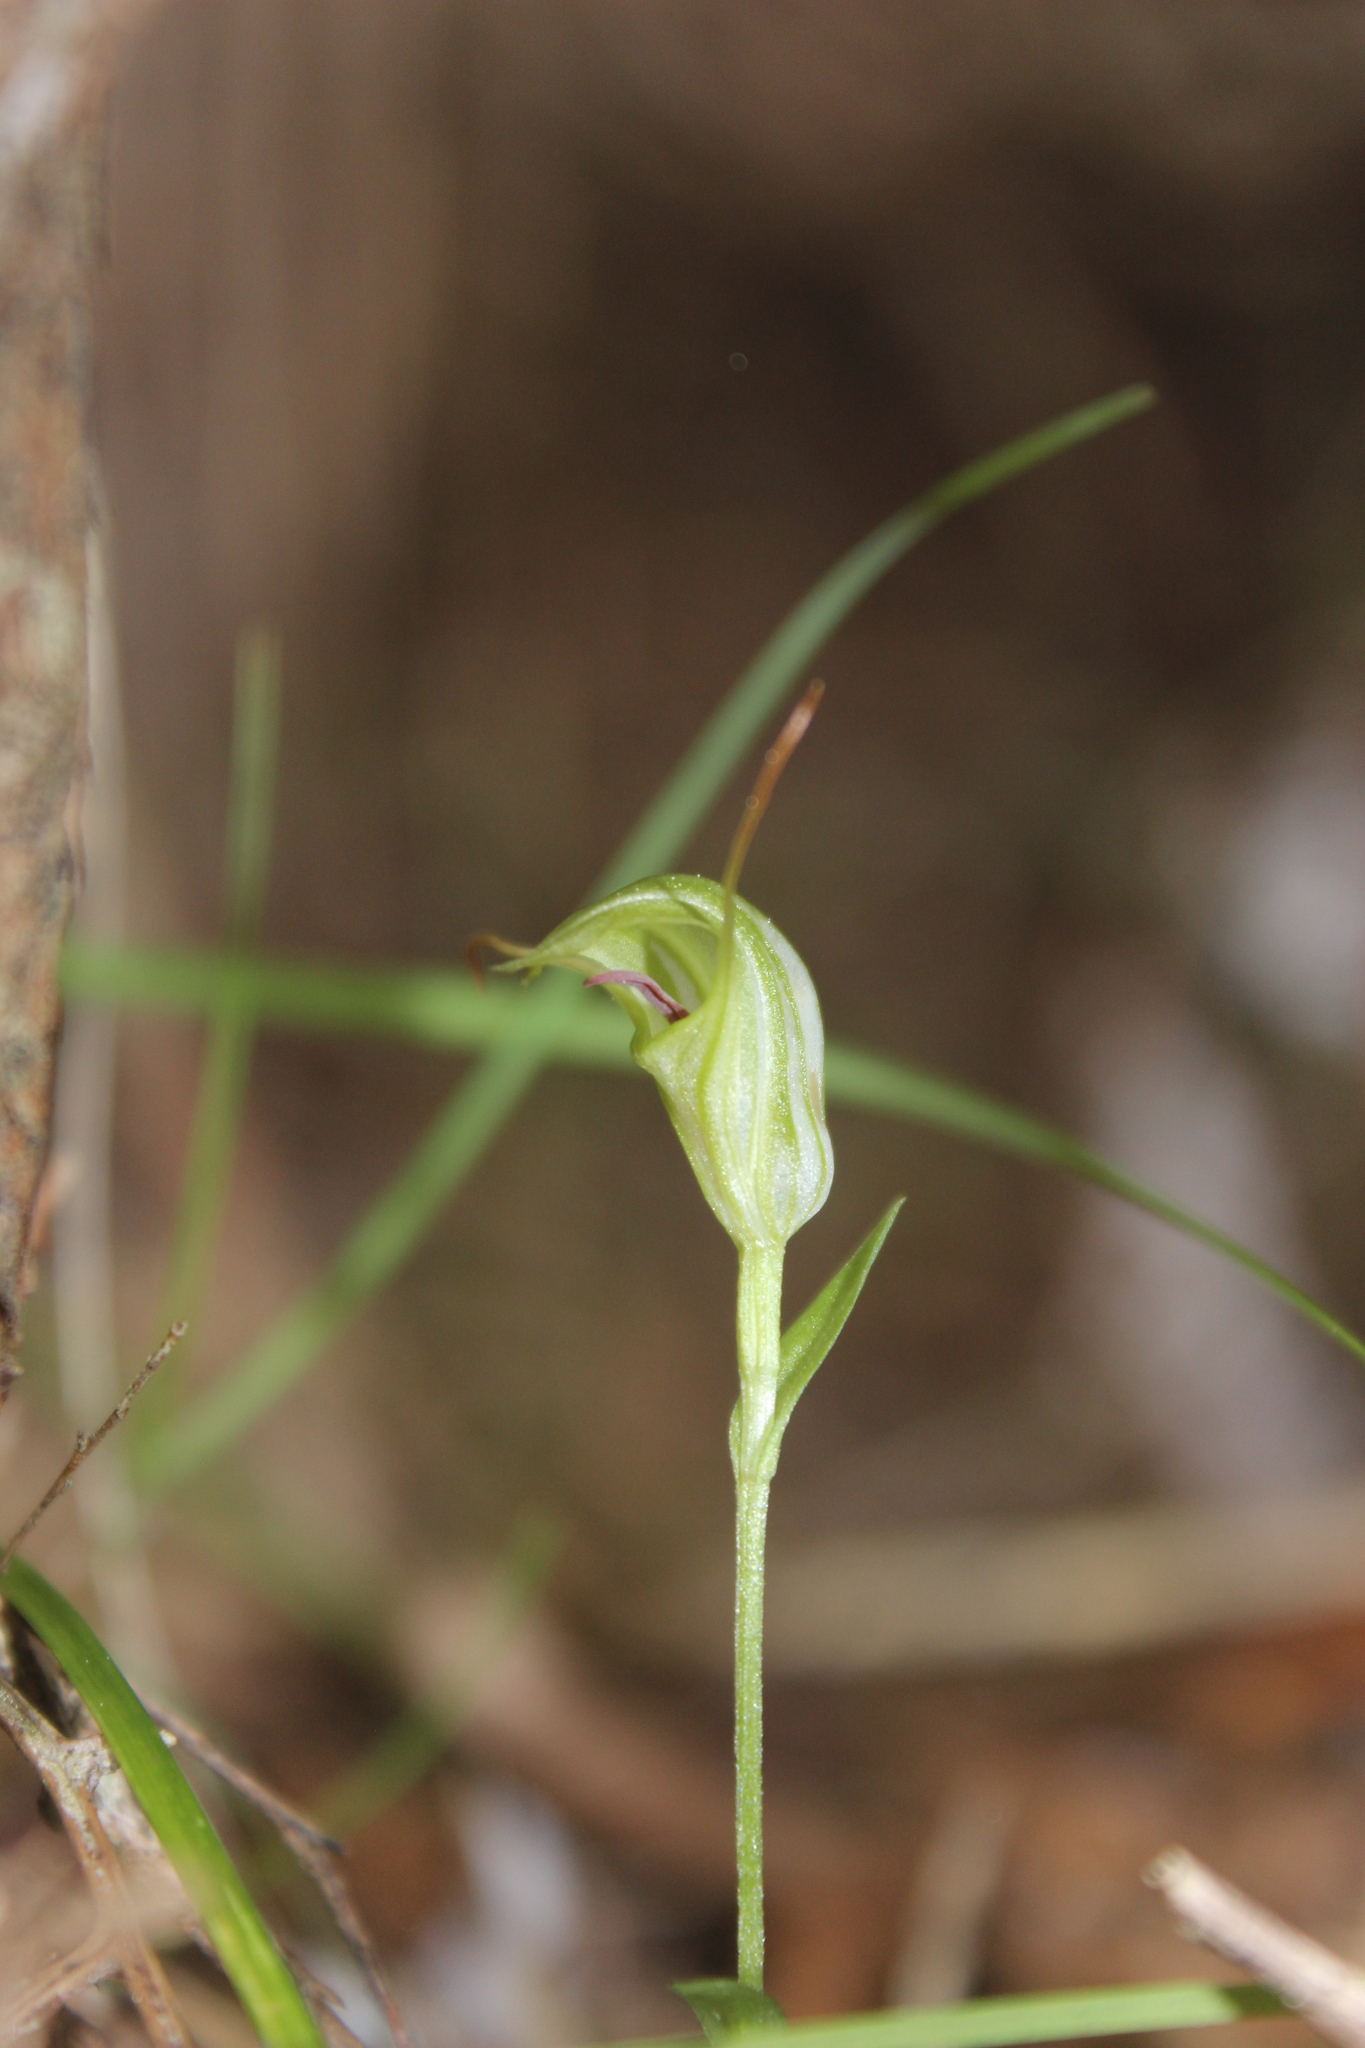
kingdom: Plantae
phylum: Tracheophyta
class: Liliopsida
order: Asparagales
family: Orchidaceae
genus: Pterostylis
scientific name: Pterostylis trullifolia
